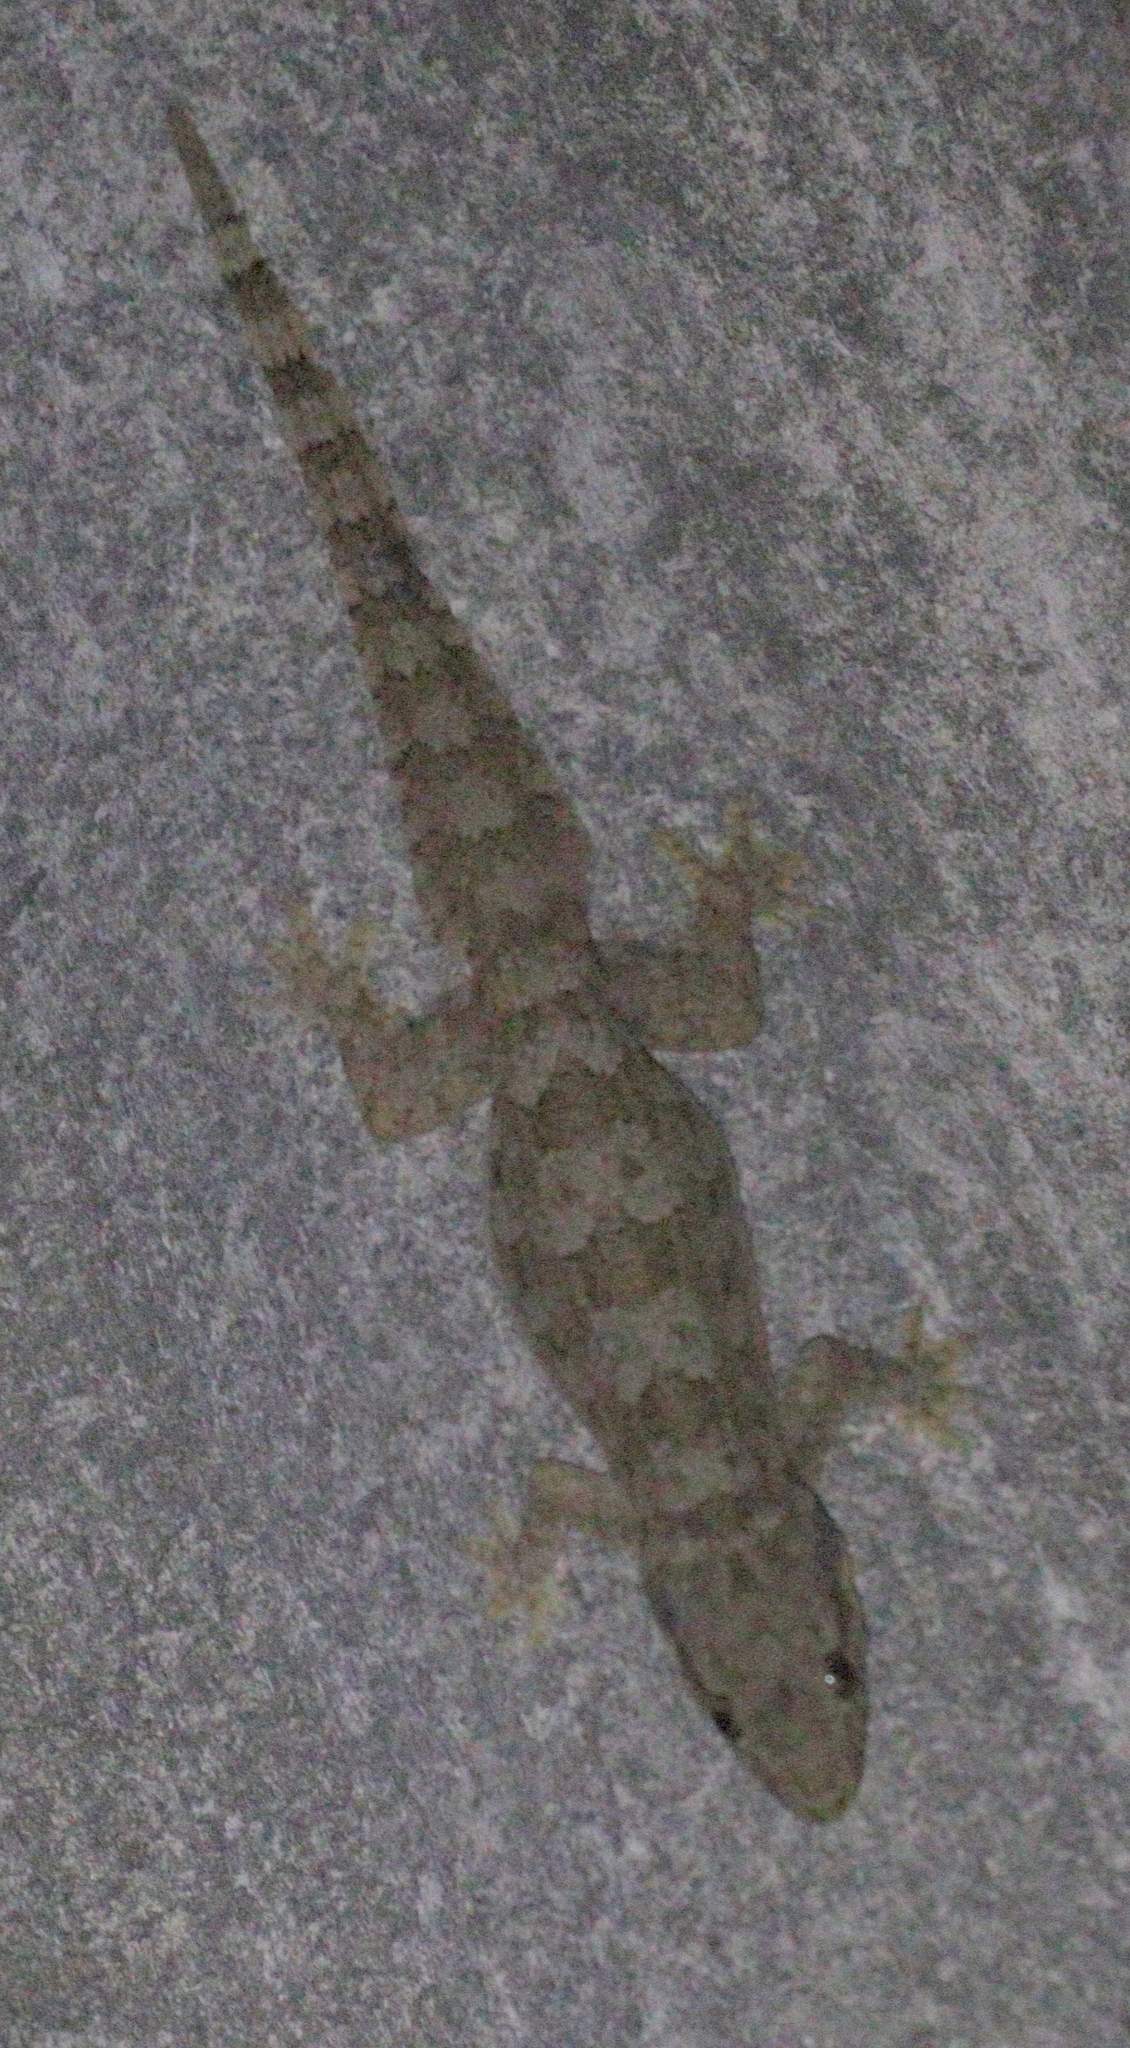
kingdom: Animalia
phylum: Chordata
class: Squamata
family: Gekkonidae
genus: Hemidactylus
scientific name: Hemidactylus platyurus
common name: Flat-tailed house gecko
